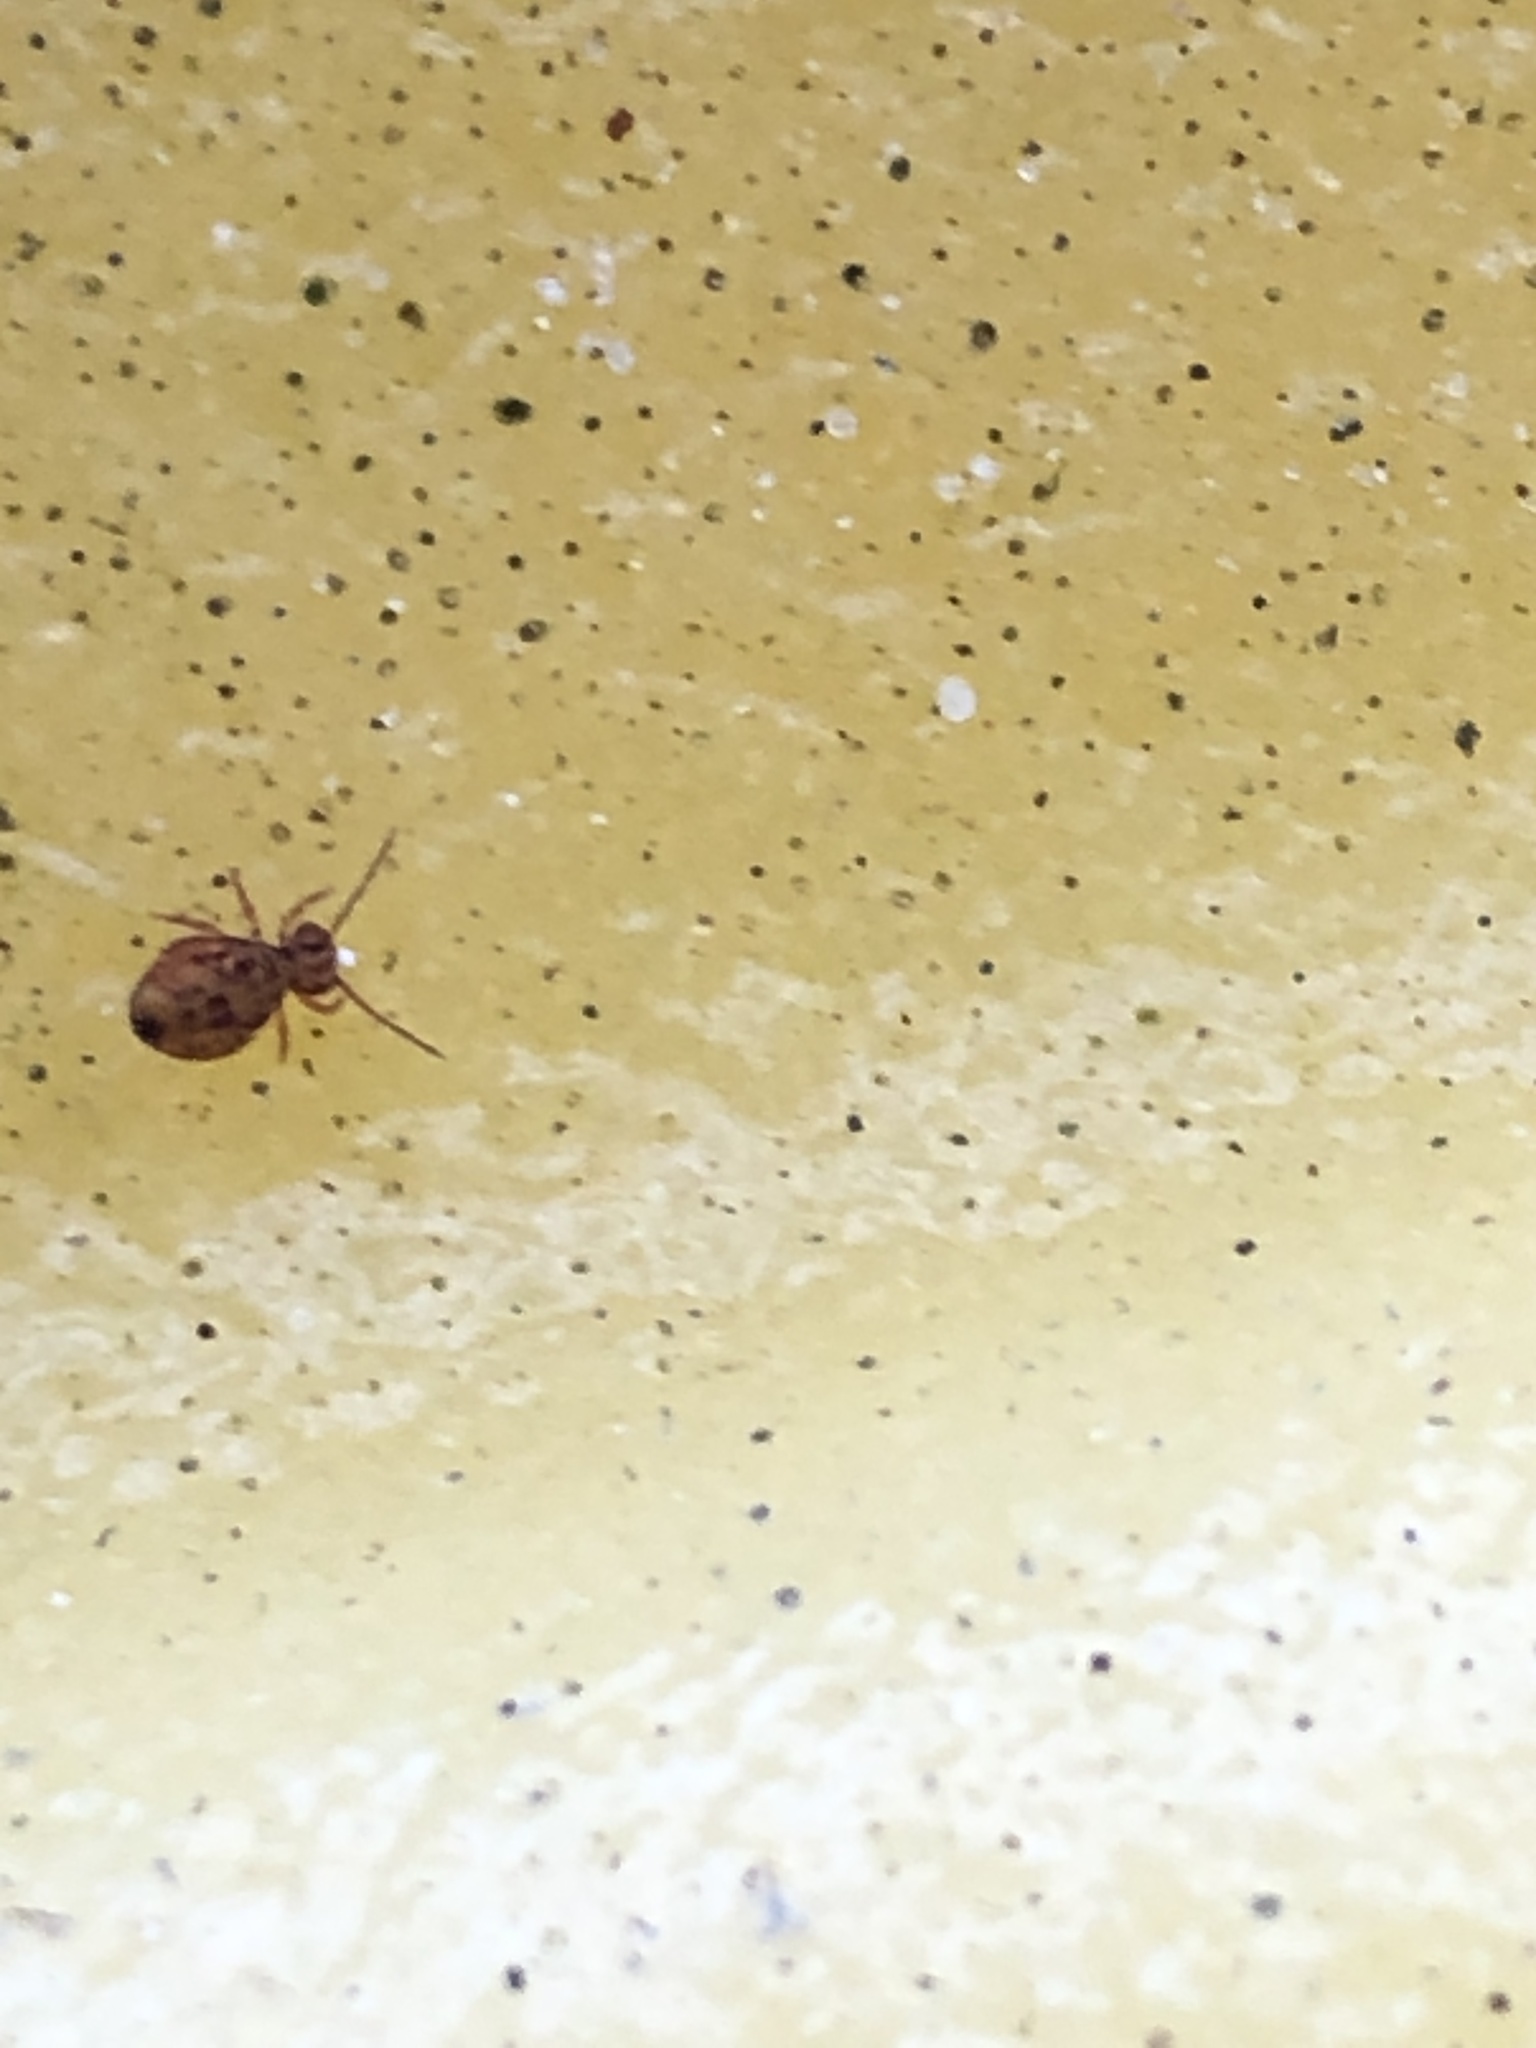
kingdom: Animalia
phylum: Arthropoda
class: Collembola
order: Symphypleona
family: Dicyrtomidae
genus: Dicyrtomina
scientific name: Dicyrtomina ornata
